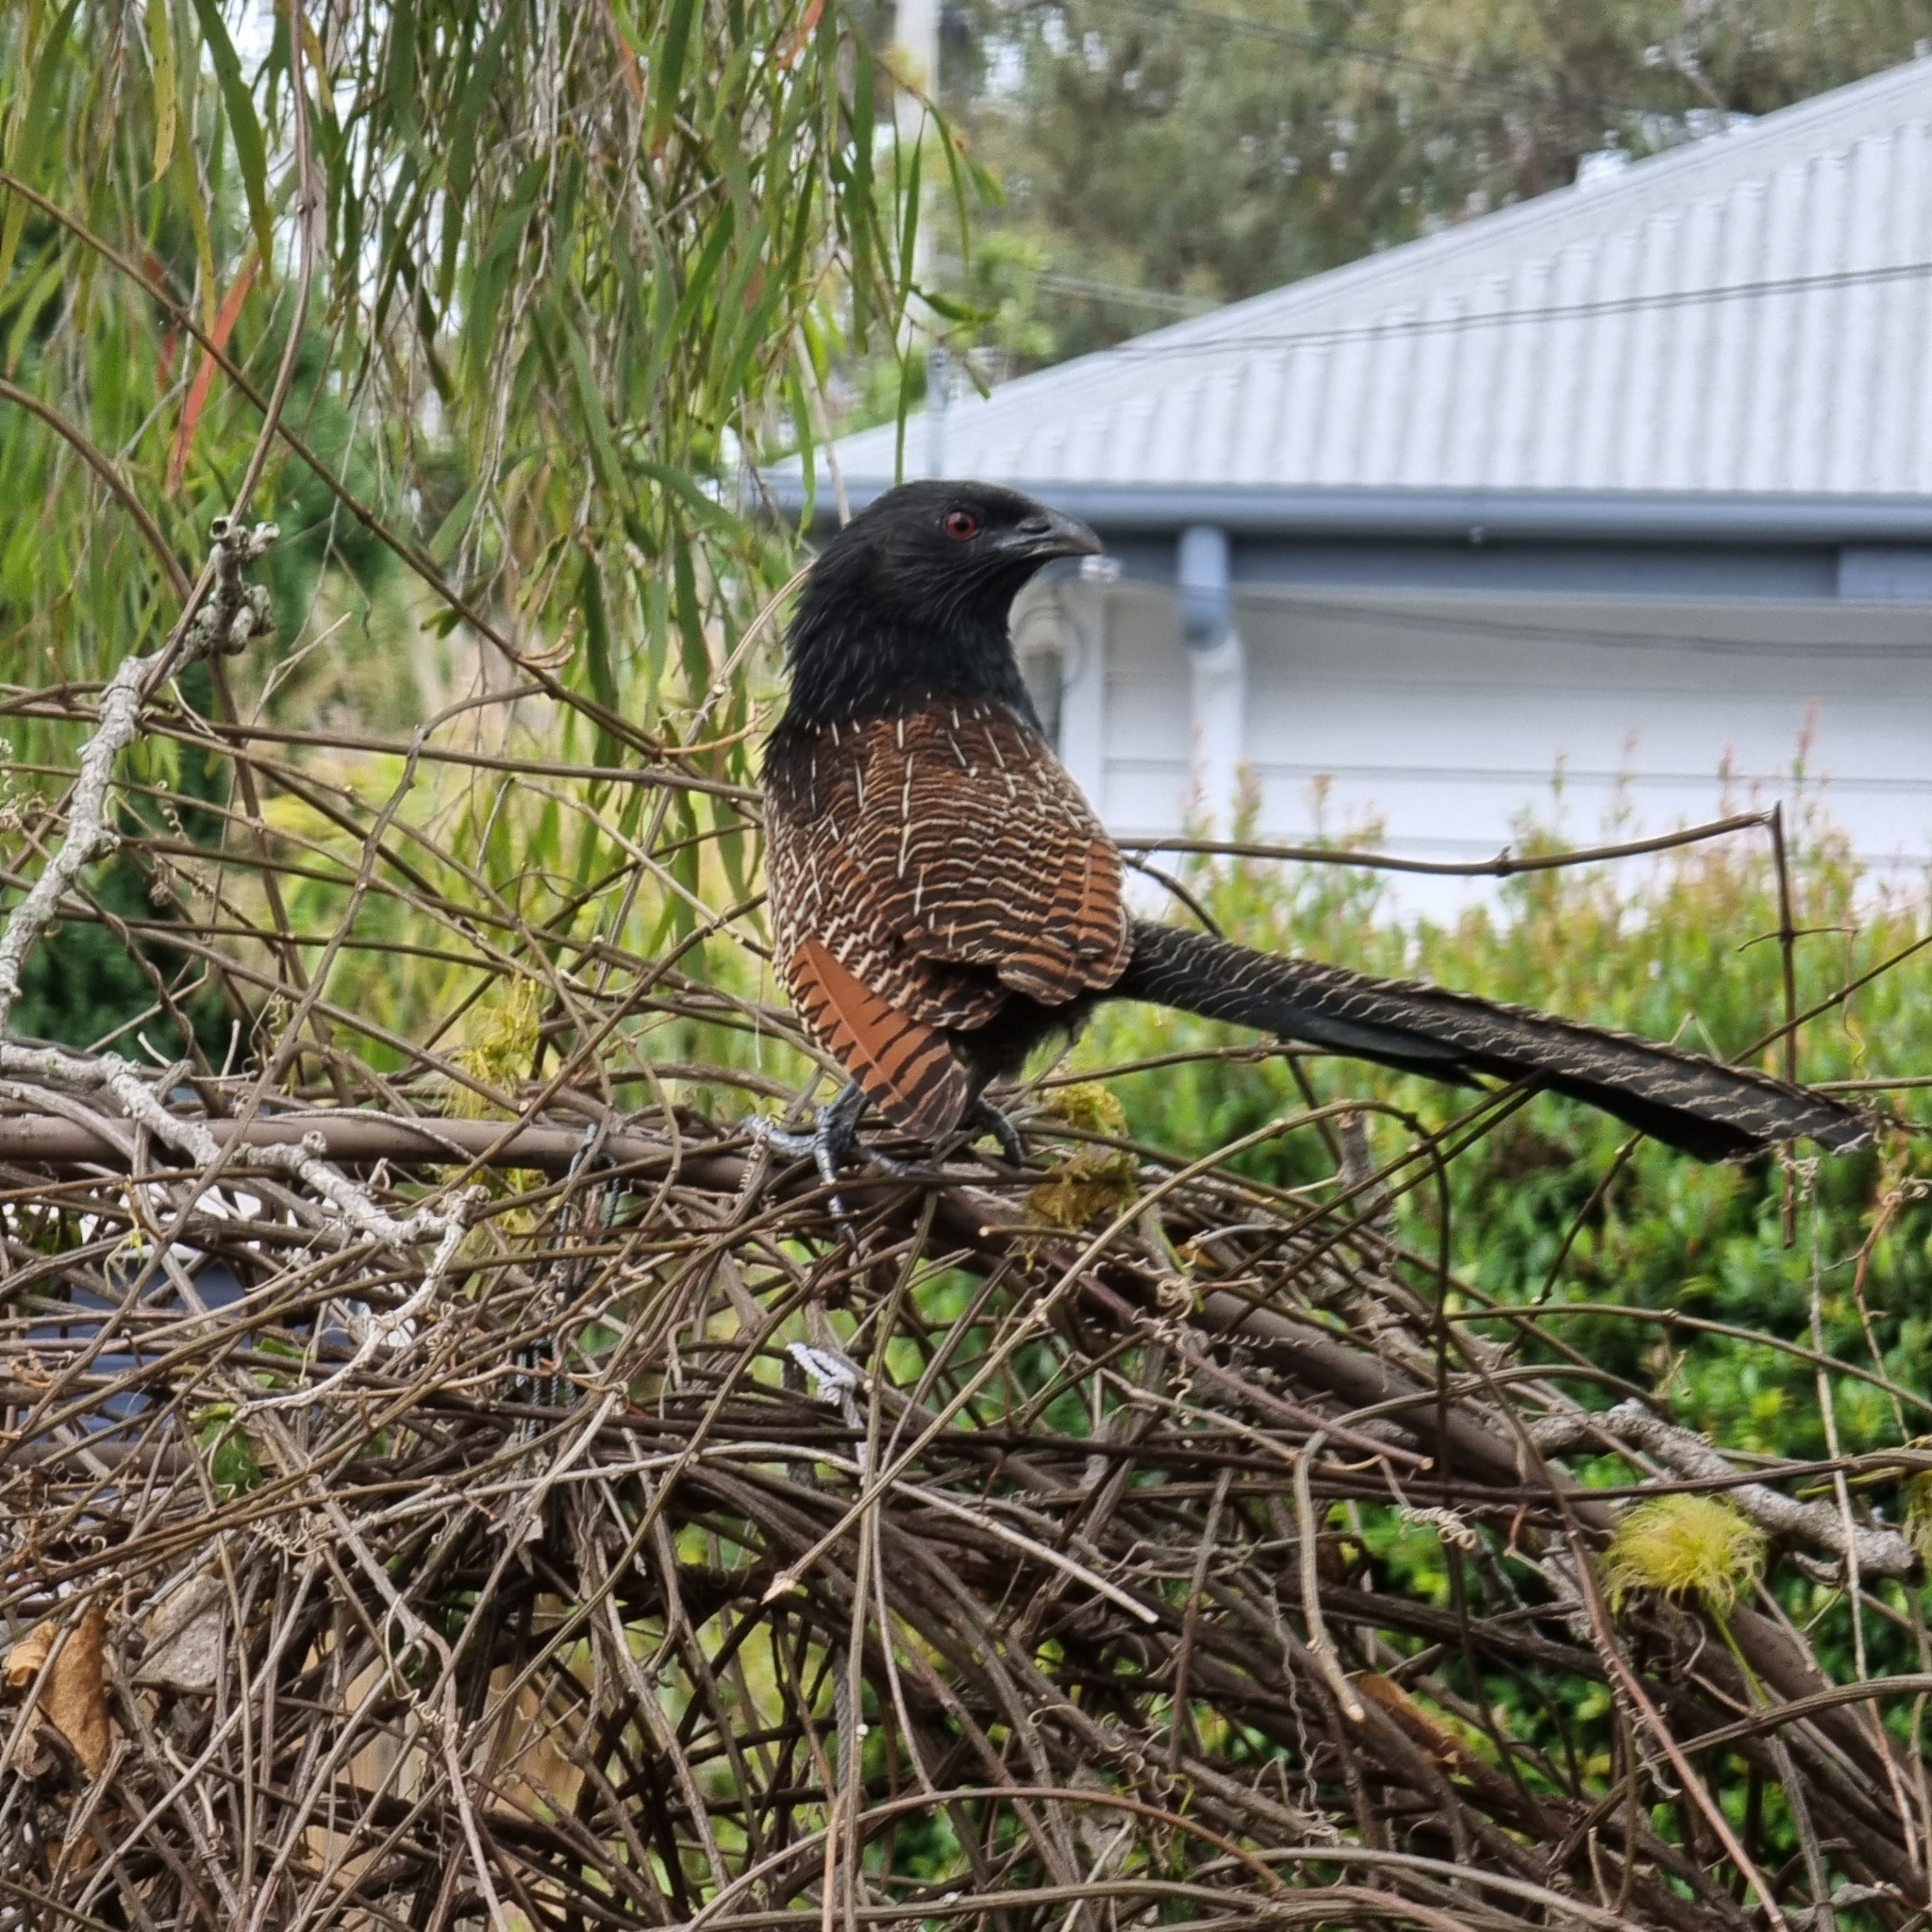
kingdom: Animalia
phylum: Chordata
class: Aves
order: Cuculiformes
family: Cuculidae
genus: Centropus
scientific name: Centropus phasianinus
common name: Pheasant coucal
